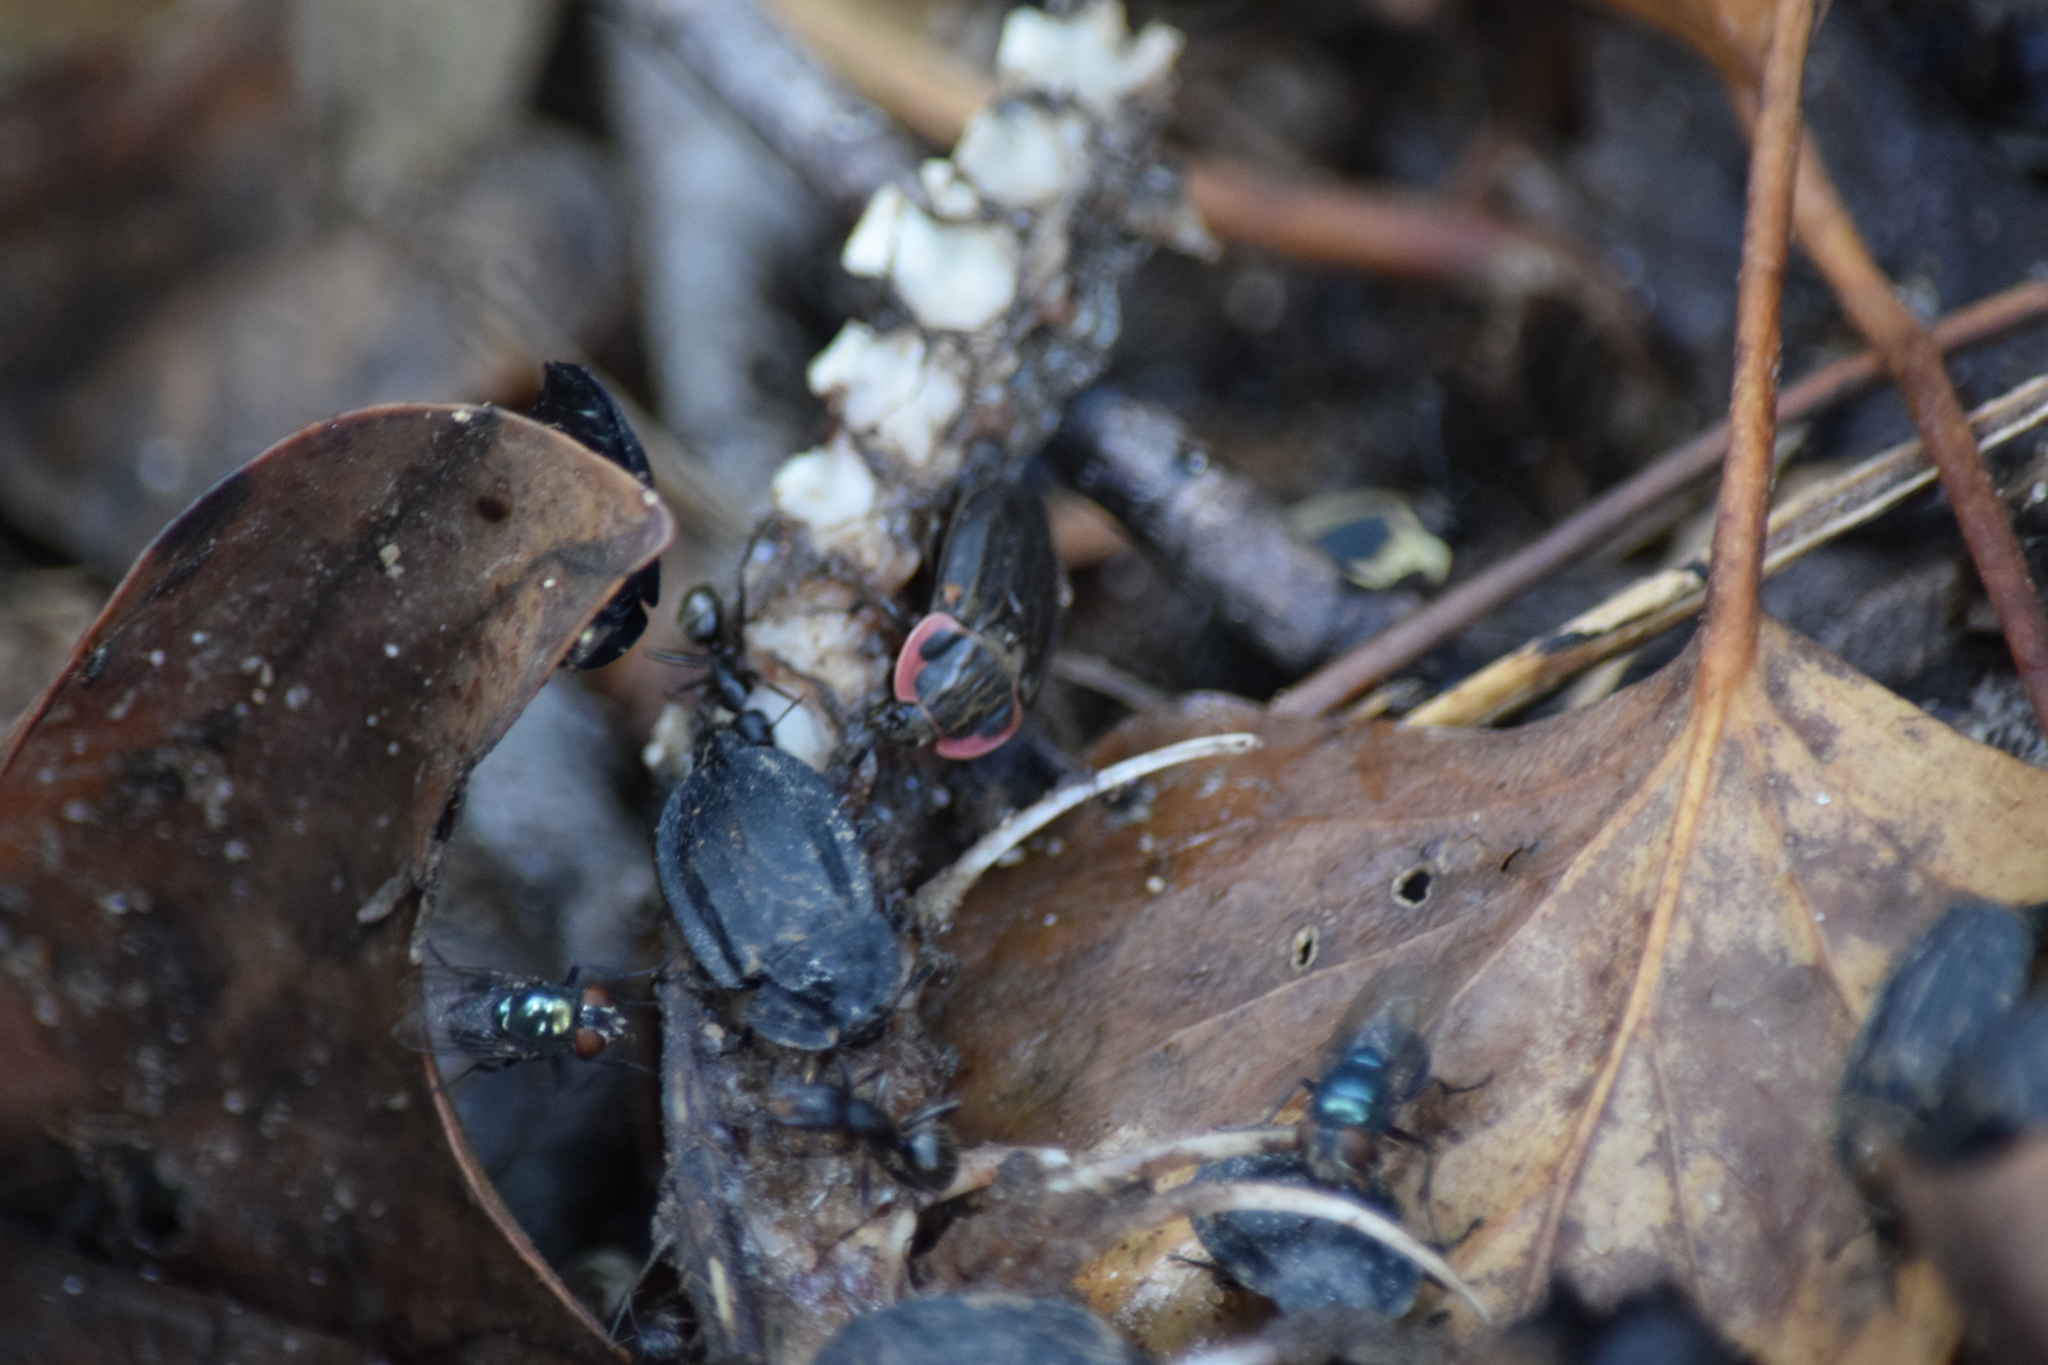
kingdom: Animalia
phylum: Arthropoda
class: Insecta
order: Coleoptera
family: Staphylinidae
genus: Oiceoptoma
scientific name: Oiceoptoma noveboracense
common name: Margined carrion beetle
